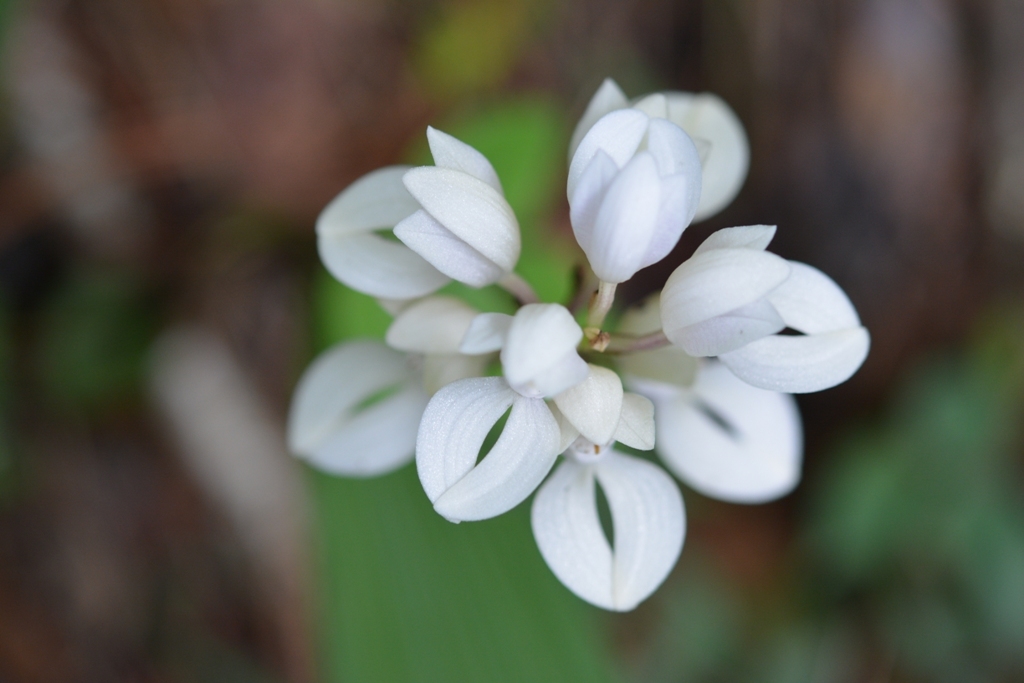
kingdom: Plantae
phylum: Tracheophyta
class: Liliopsida
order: Asparagales
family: Orchidaceae
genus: Govenia
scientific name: Govenia liliacea
